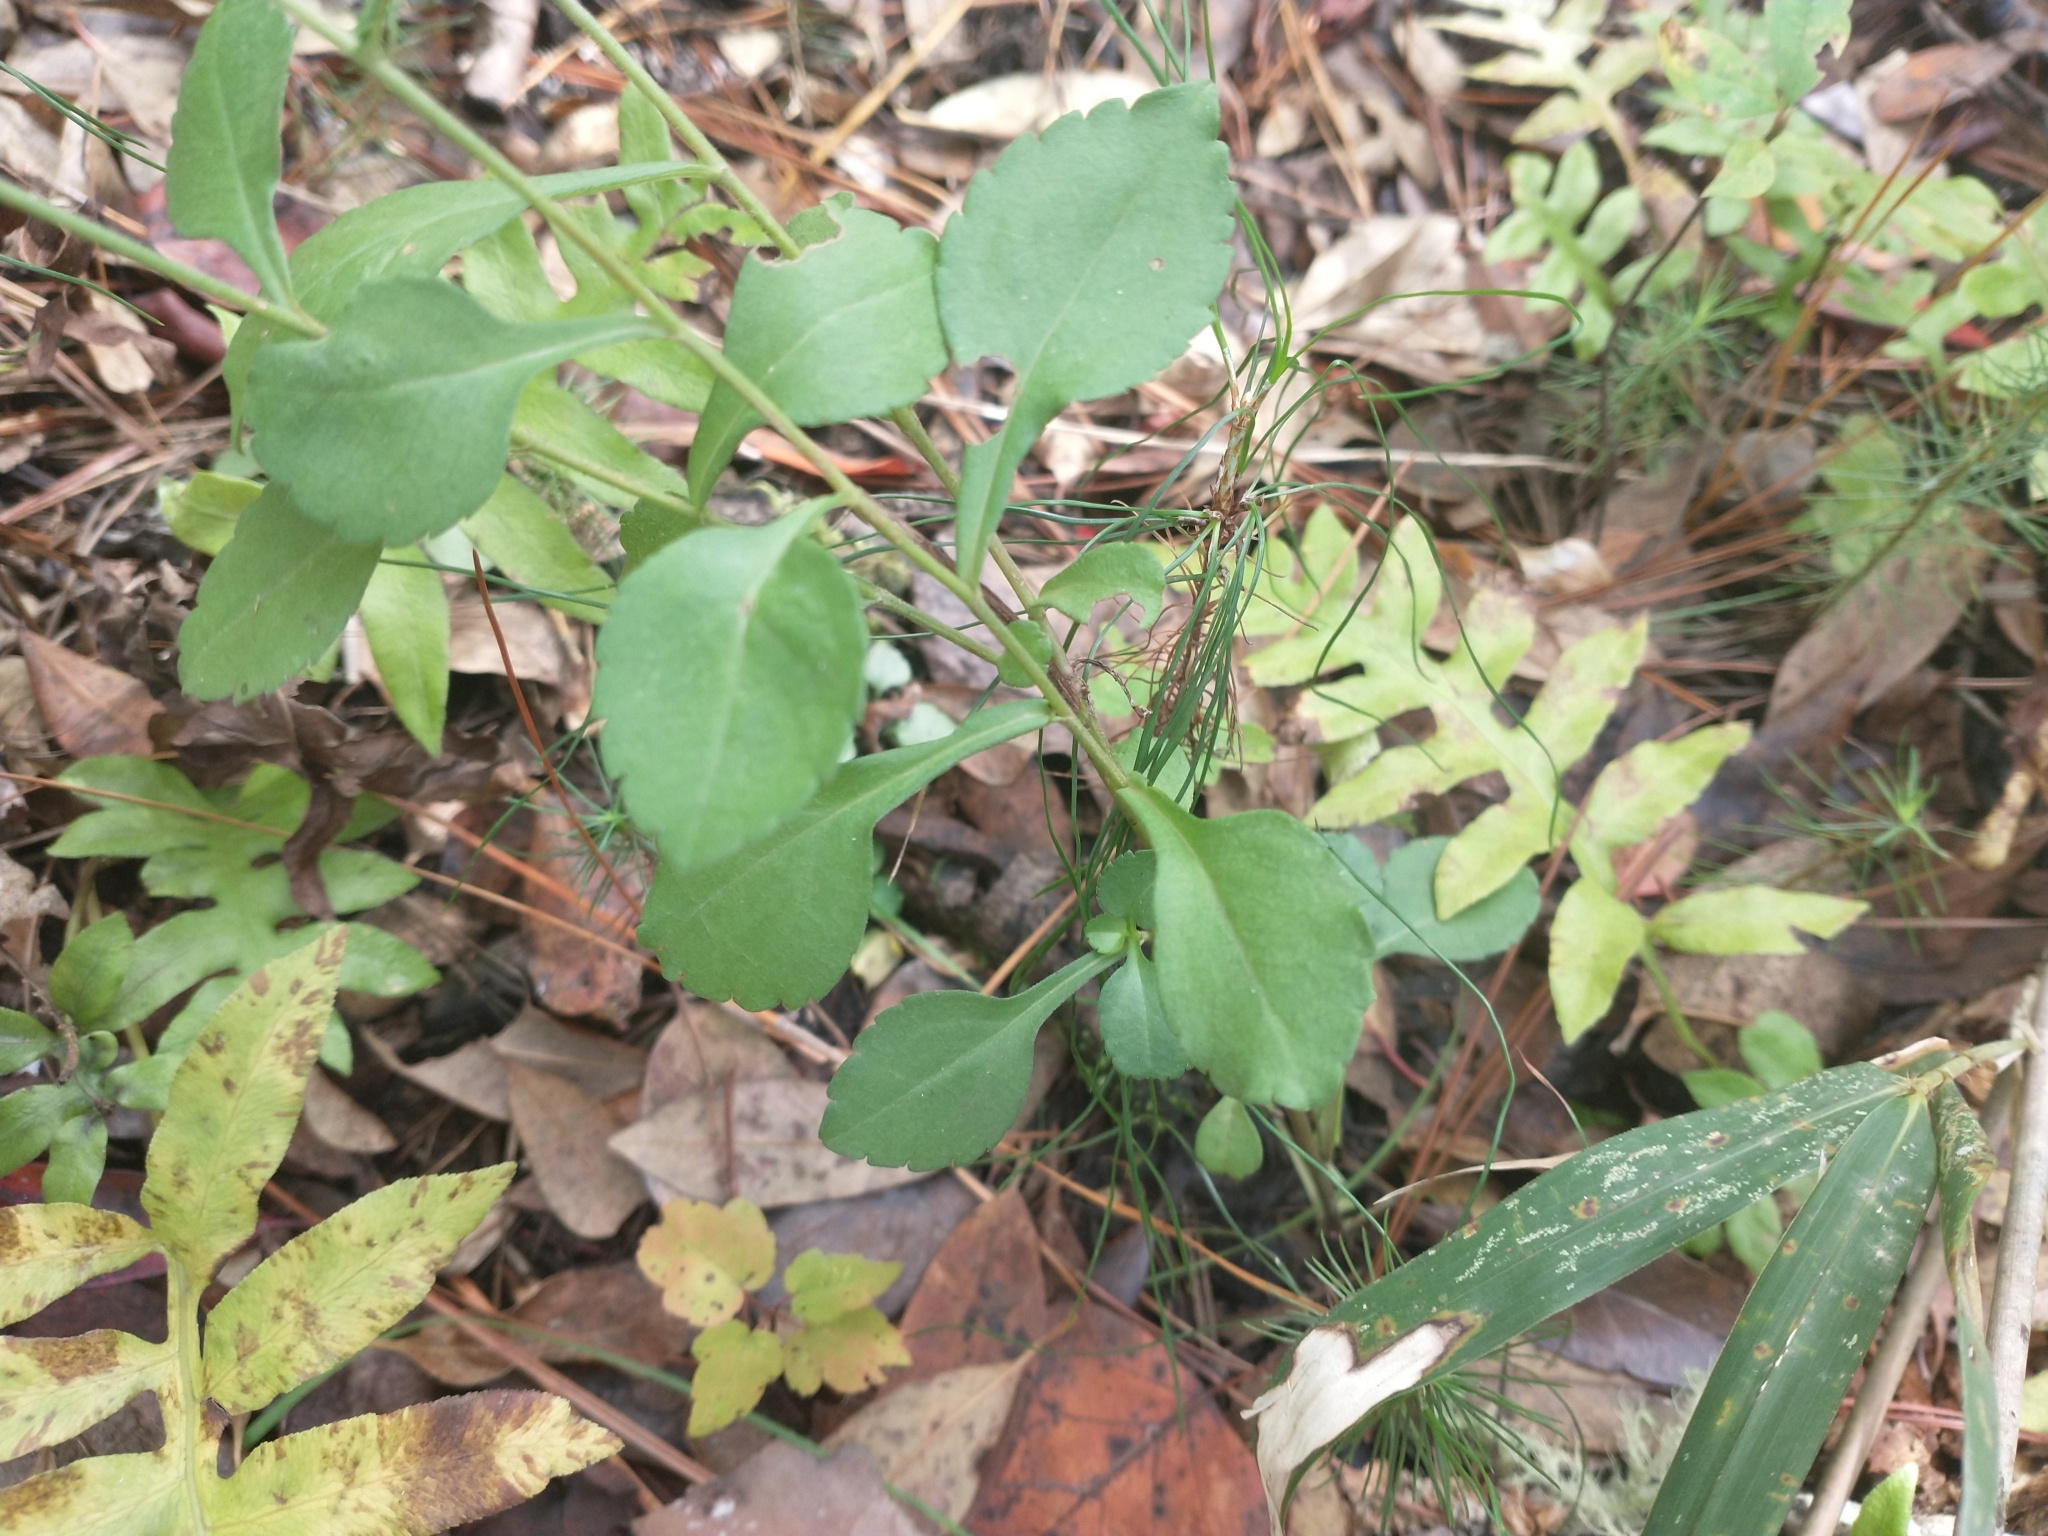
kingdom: Plantae
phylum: Tracheophyta
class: Polypodiopsida
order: Polypodiales
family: Blechnaceae
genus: Lorinseria
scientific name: Lorinseria areolata
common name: Dwarf chain fern
